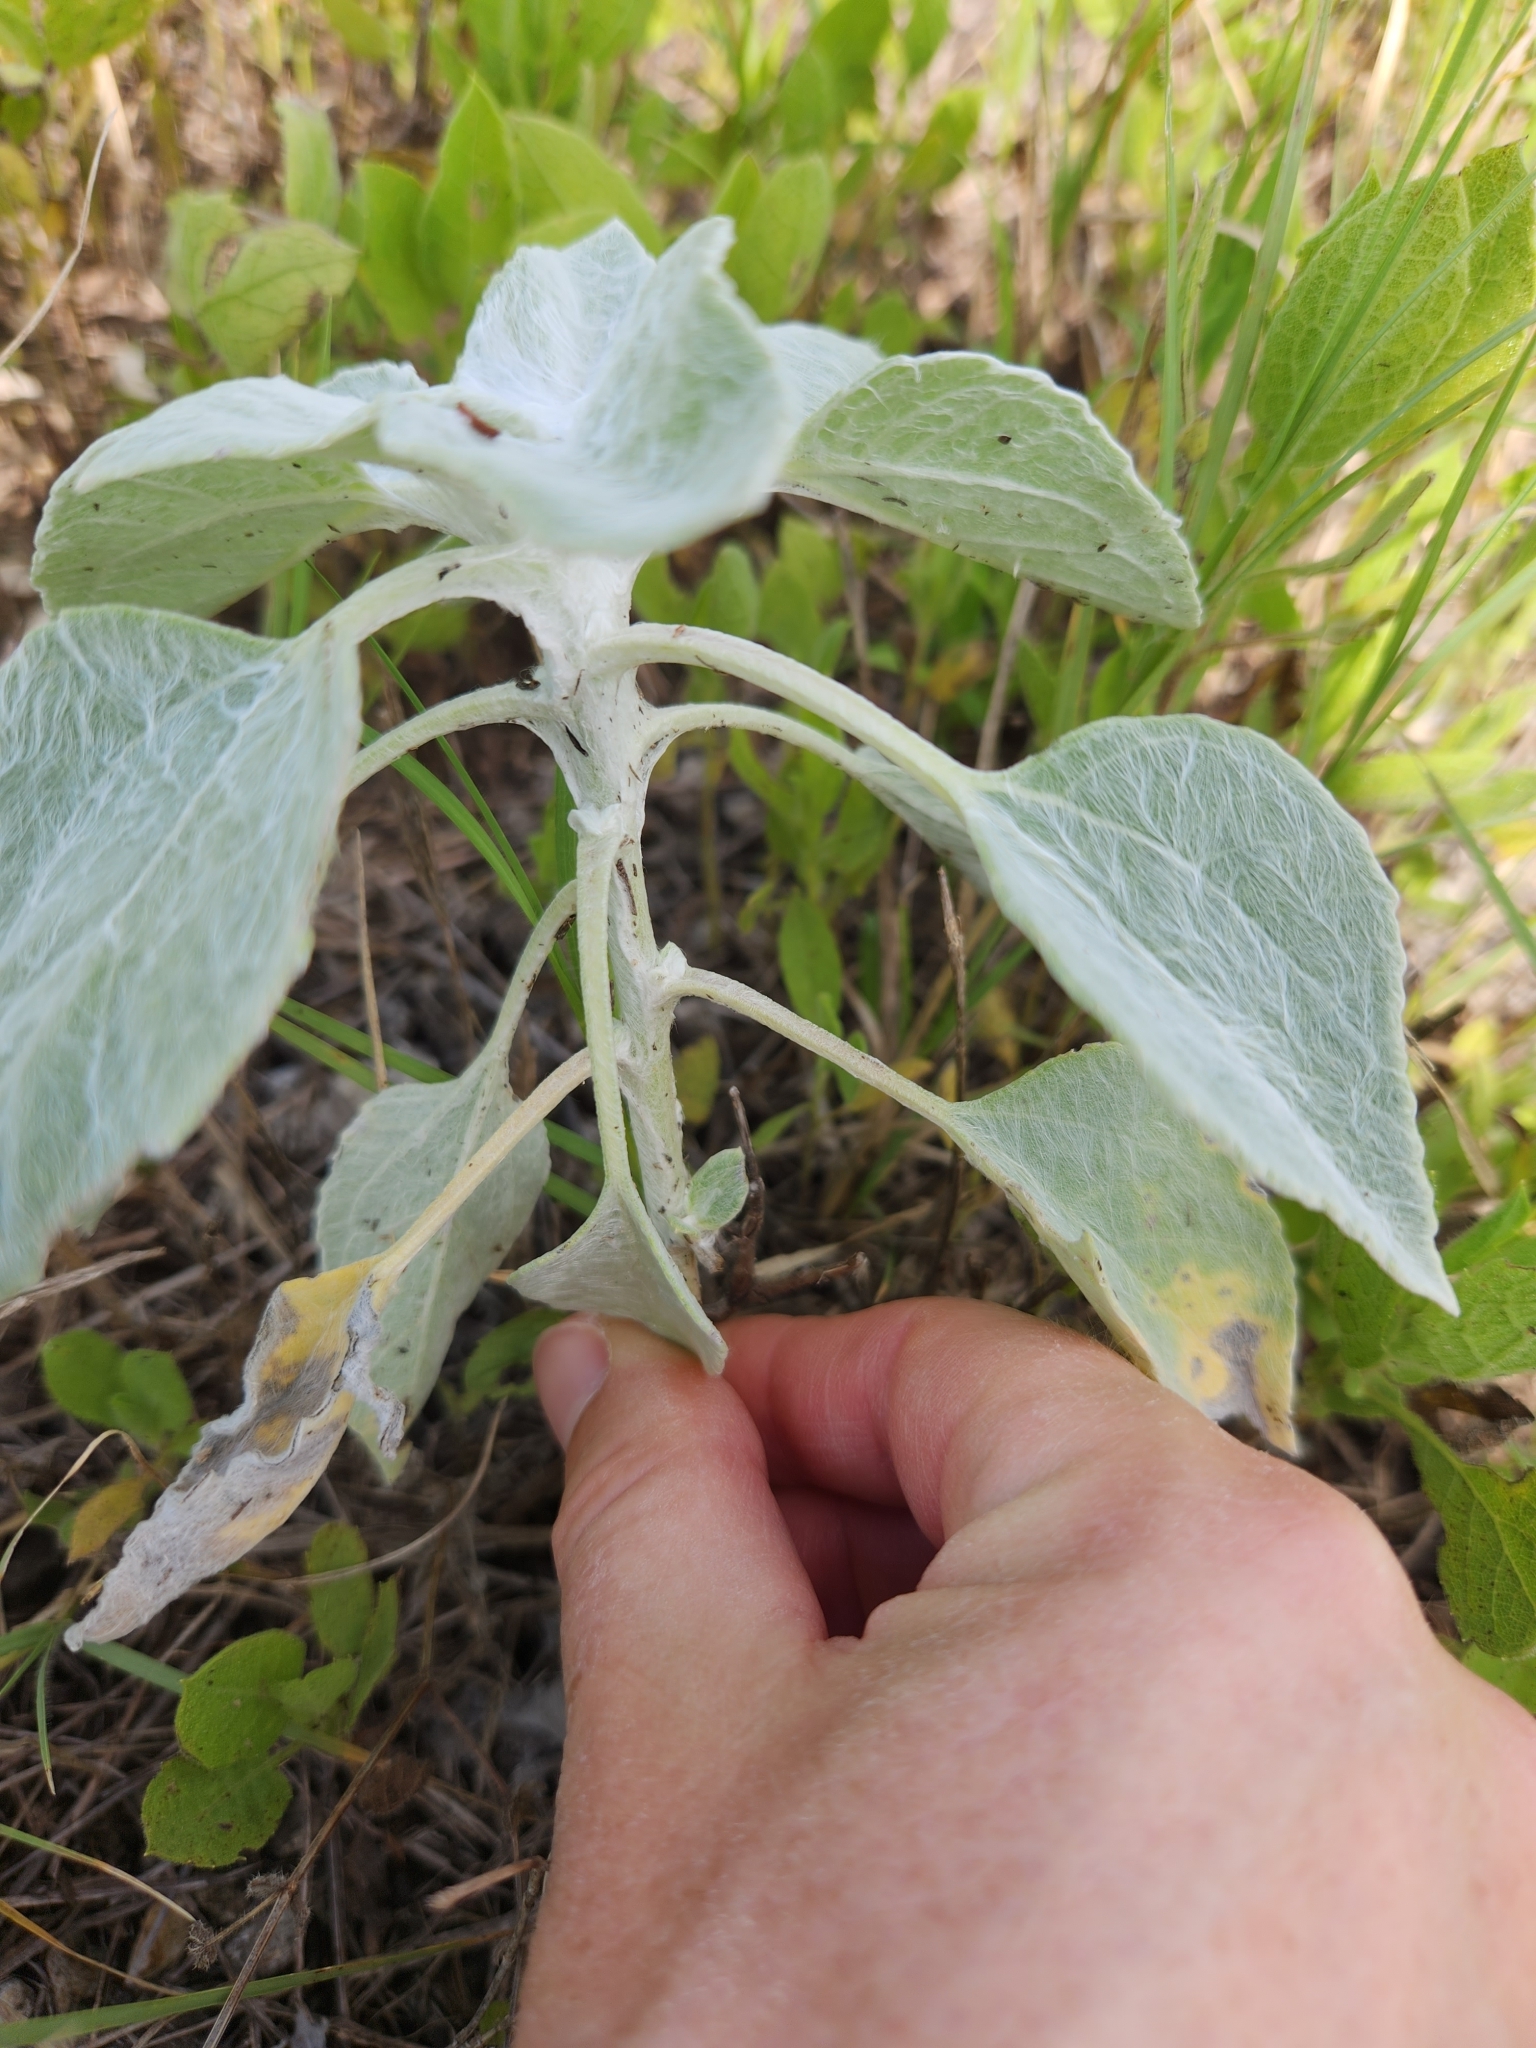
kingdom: Plantae
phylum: Tracheophyta
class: Magnoliopsida
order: Asterales
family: Asteraceae
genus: Helianthus
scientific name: Helianthus argophyllus
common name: Silverleaf sunflower
